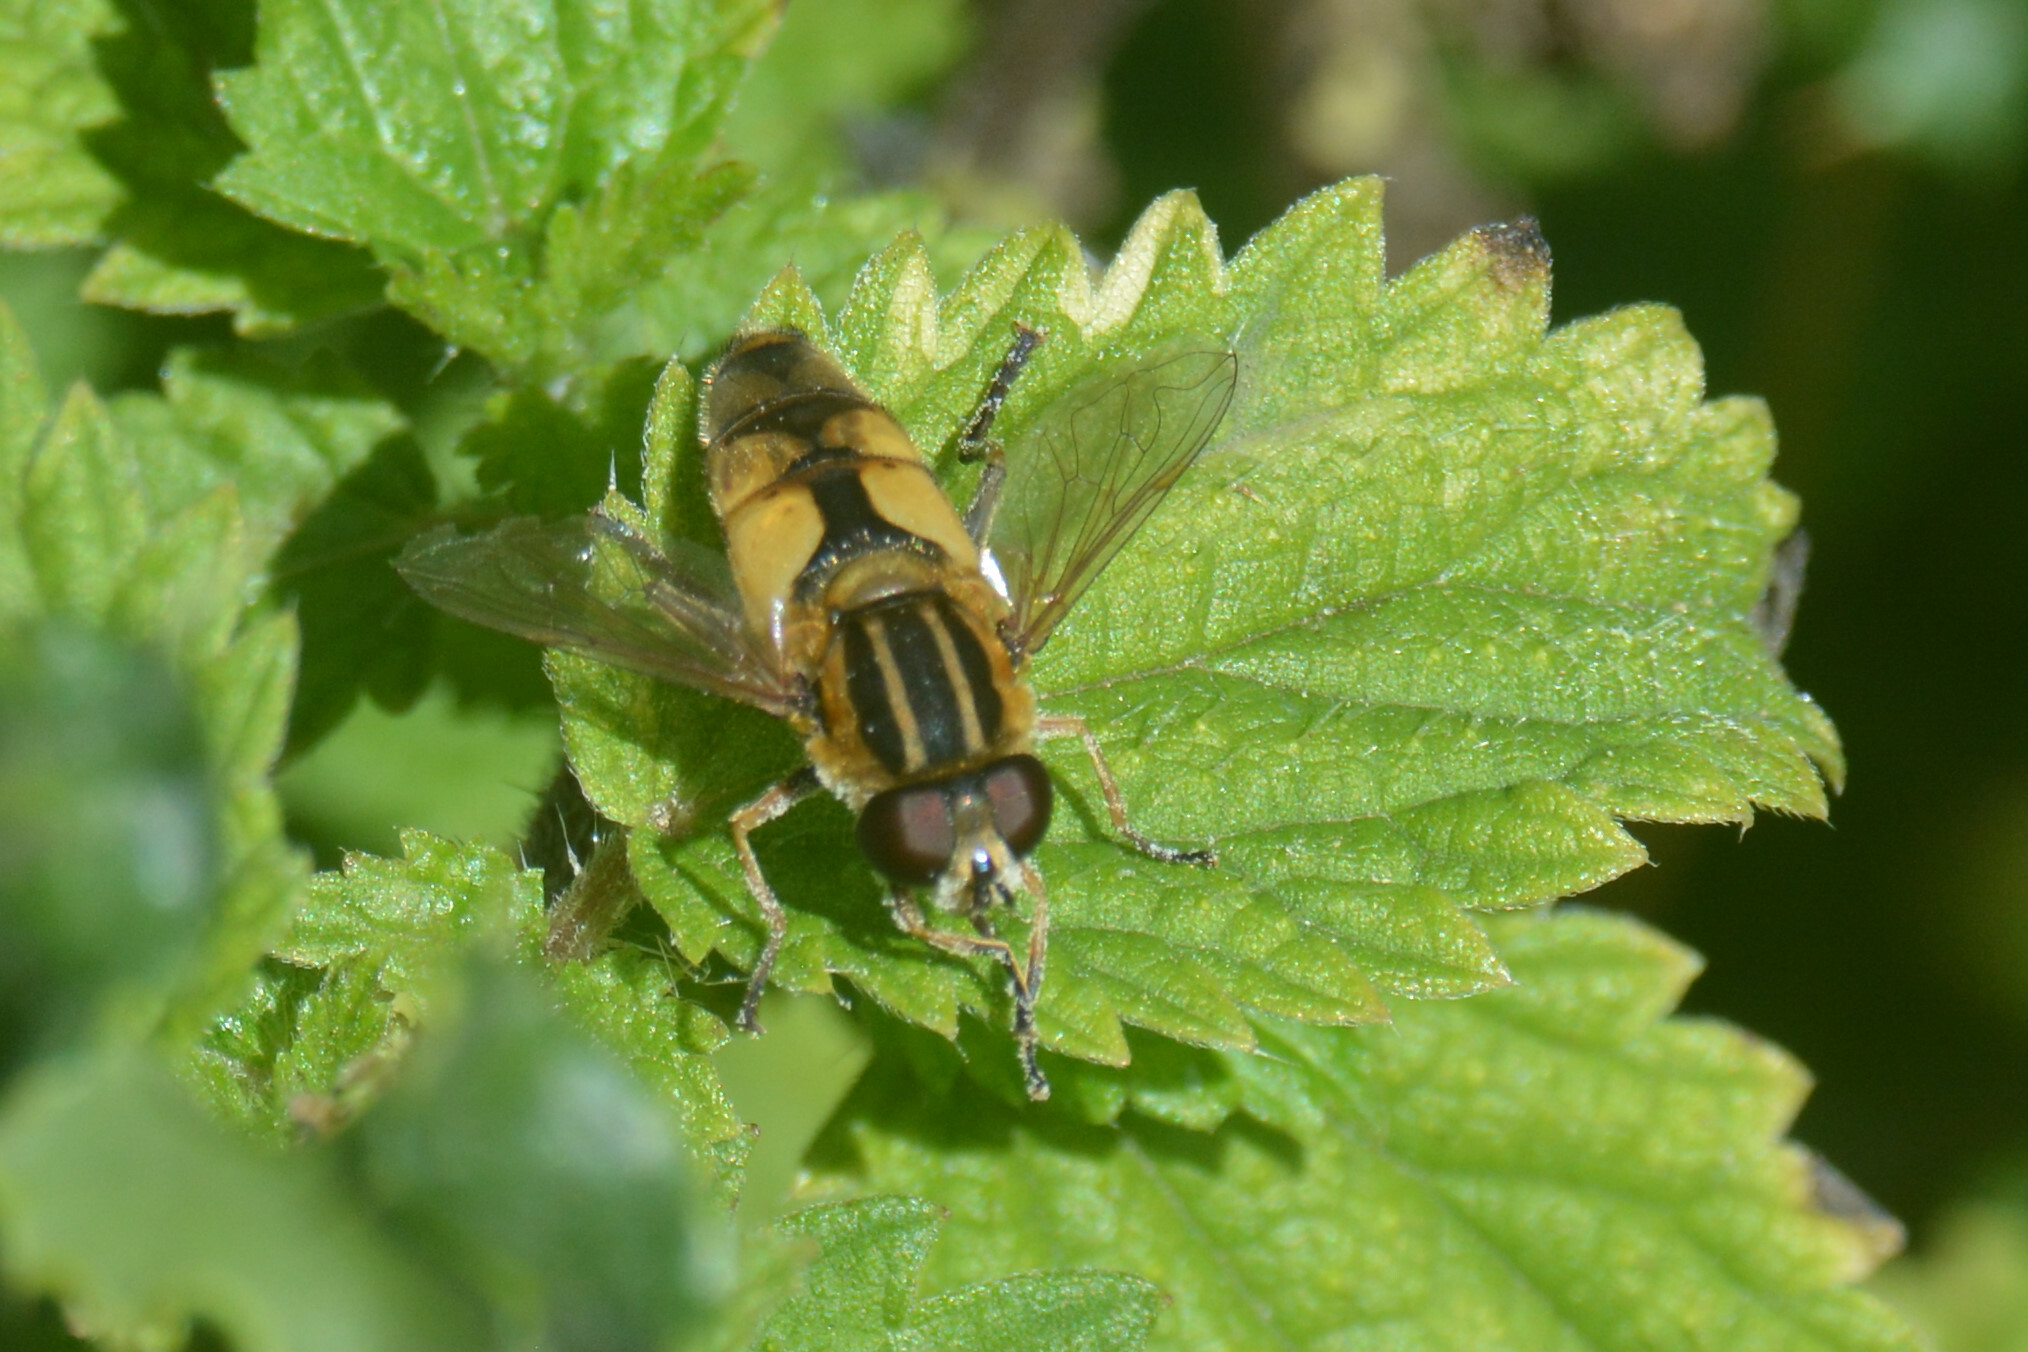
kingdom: Animalia
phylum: Arthropoda
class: Insecta
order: Diptera
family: Syrphidae
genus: Helophilus
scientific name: Helophilus hybridus
